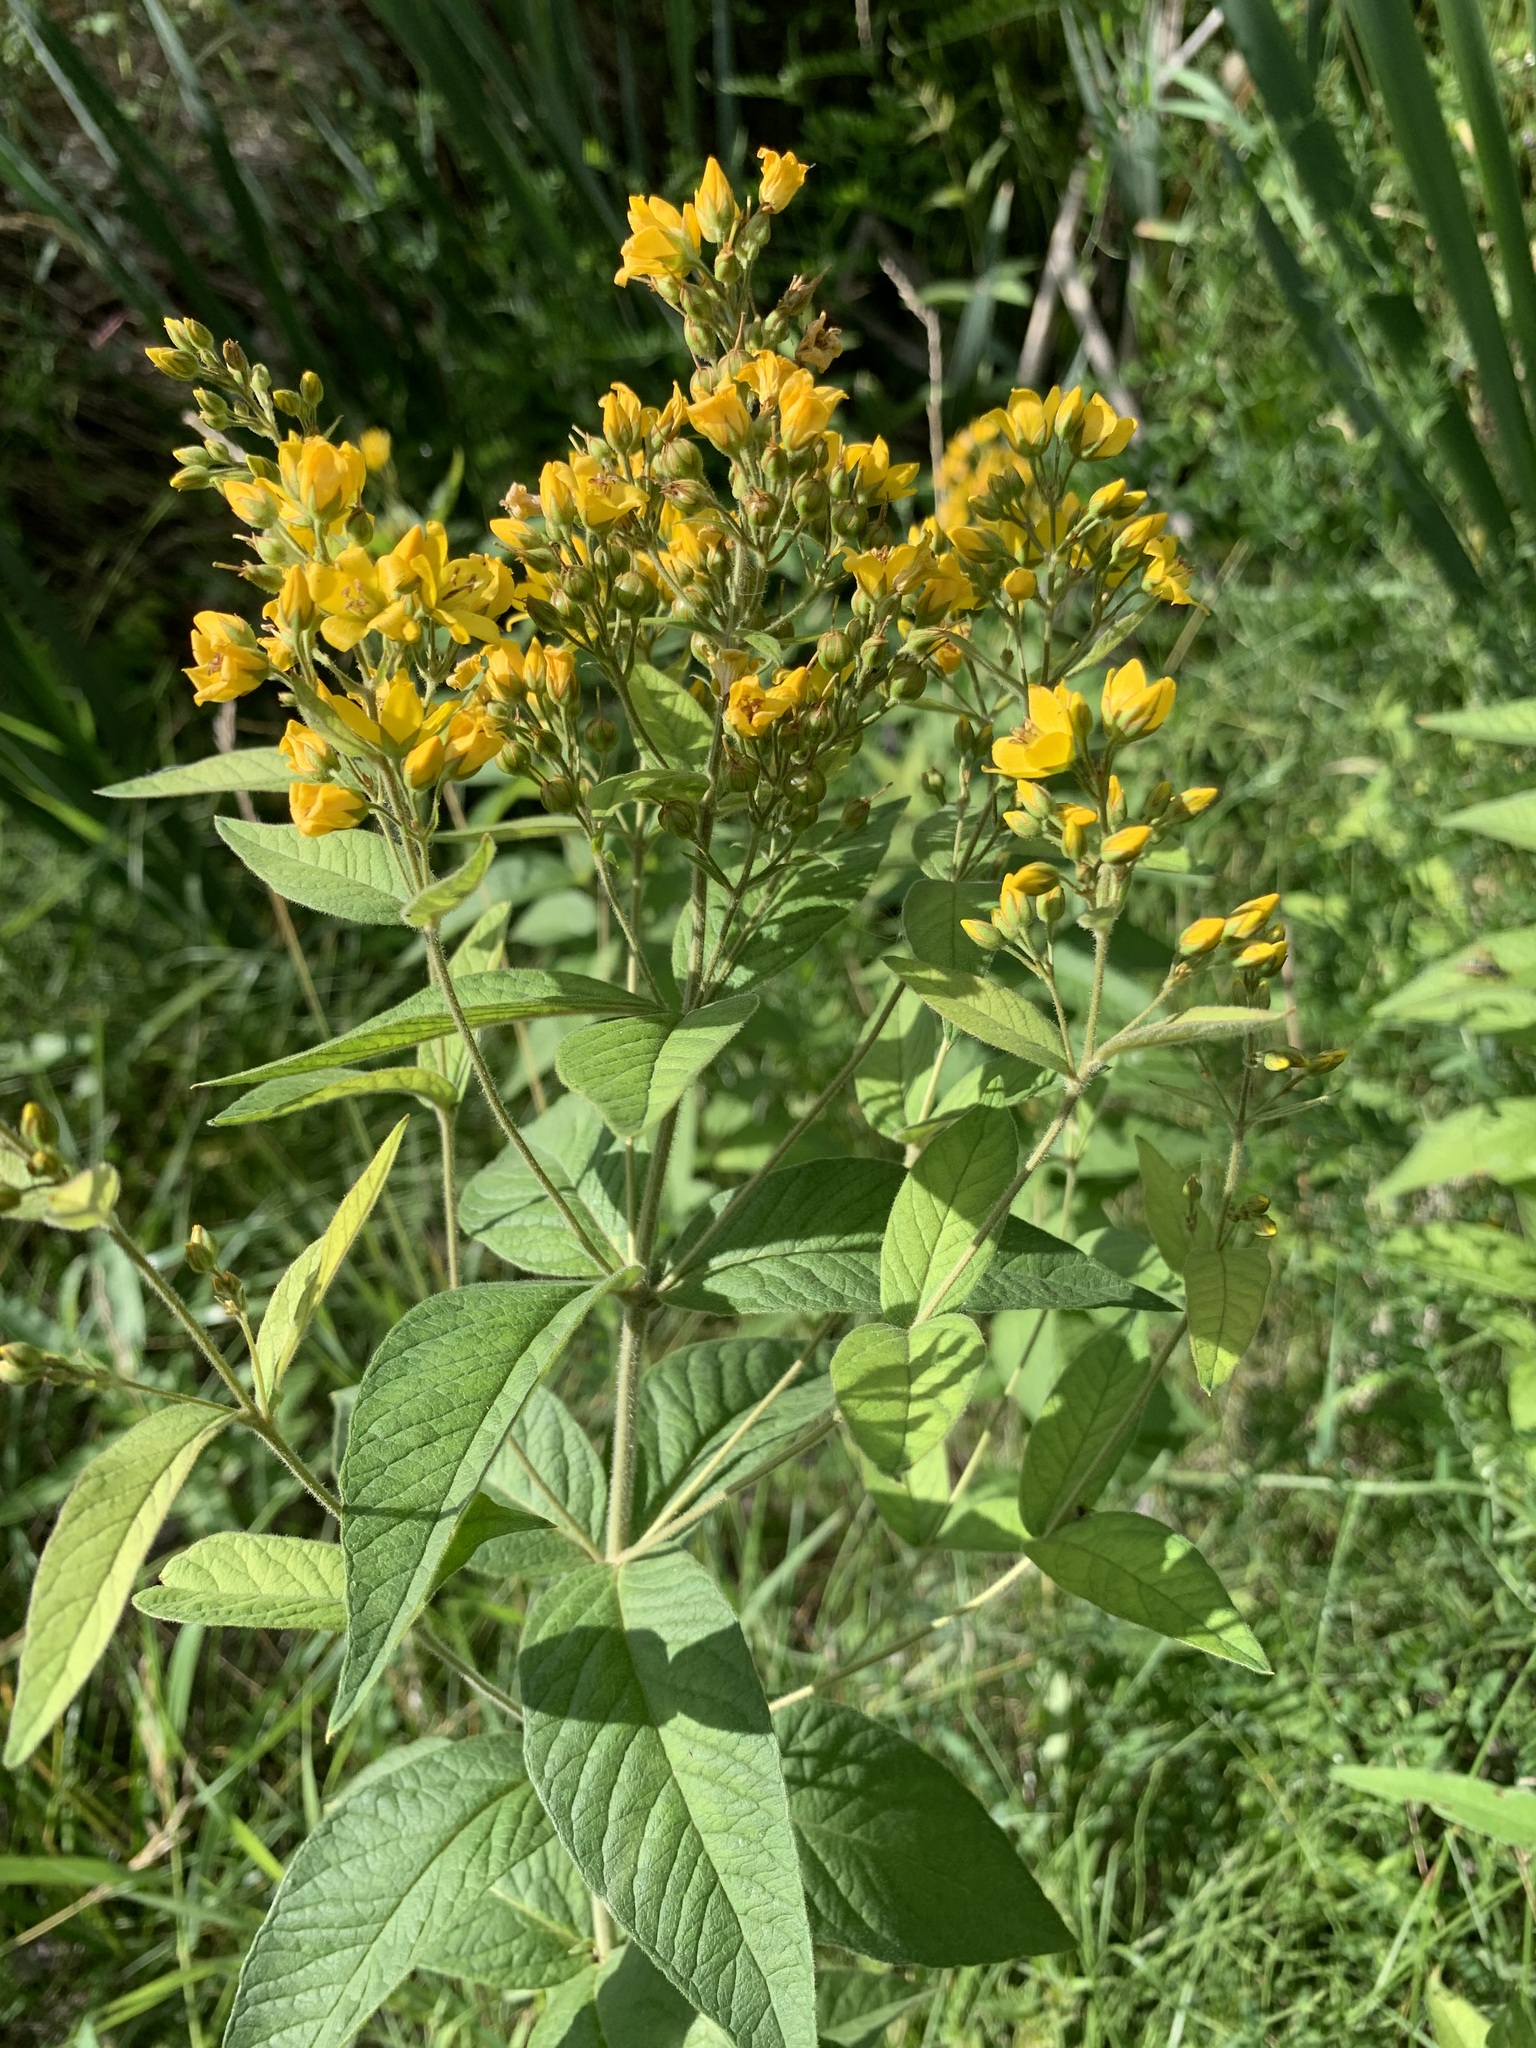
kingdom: Plantae
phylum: Tracheophyta
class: Magnoliopsida
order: Ericales
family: Primulaceae
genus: Lysimachia
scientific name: Lysimachia vulgaris
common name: Yellow loosestrife
